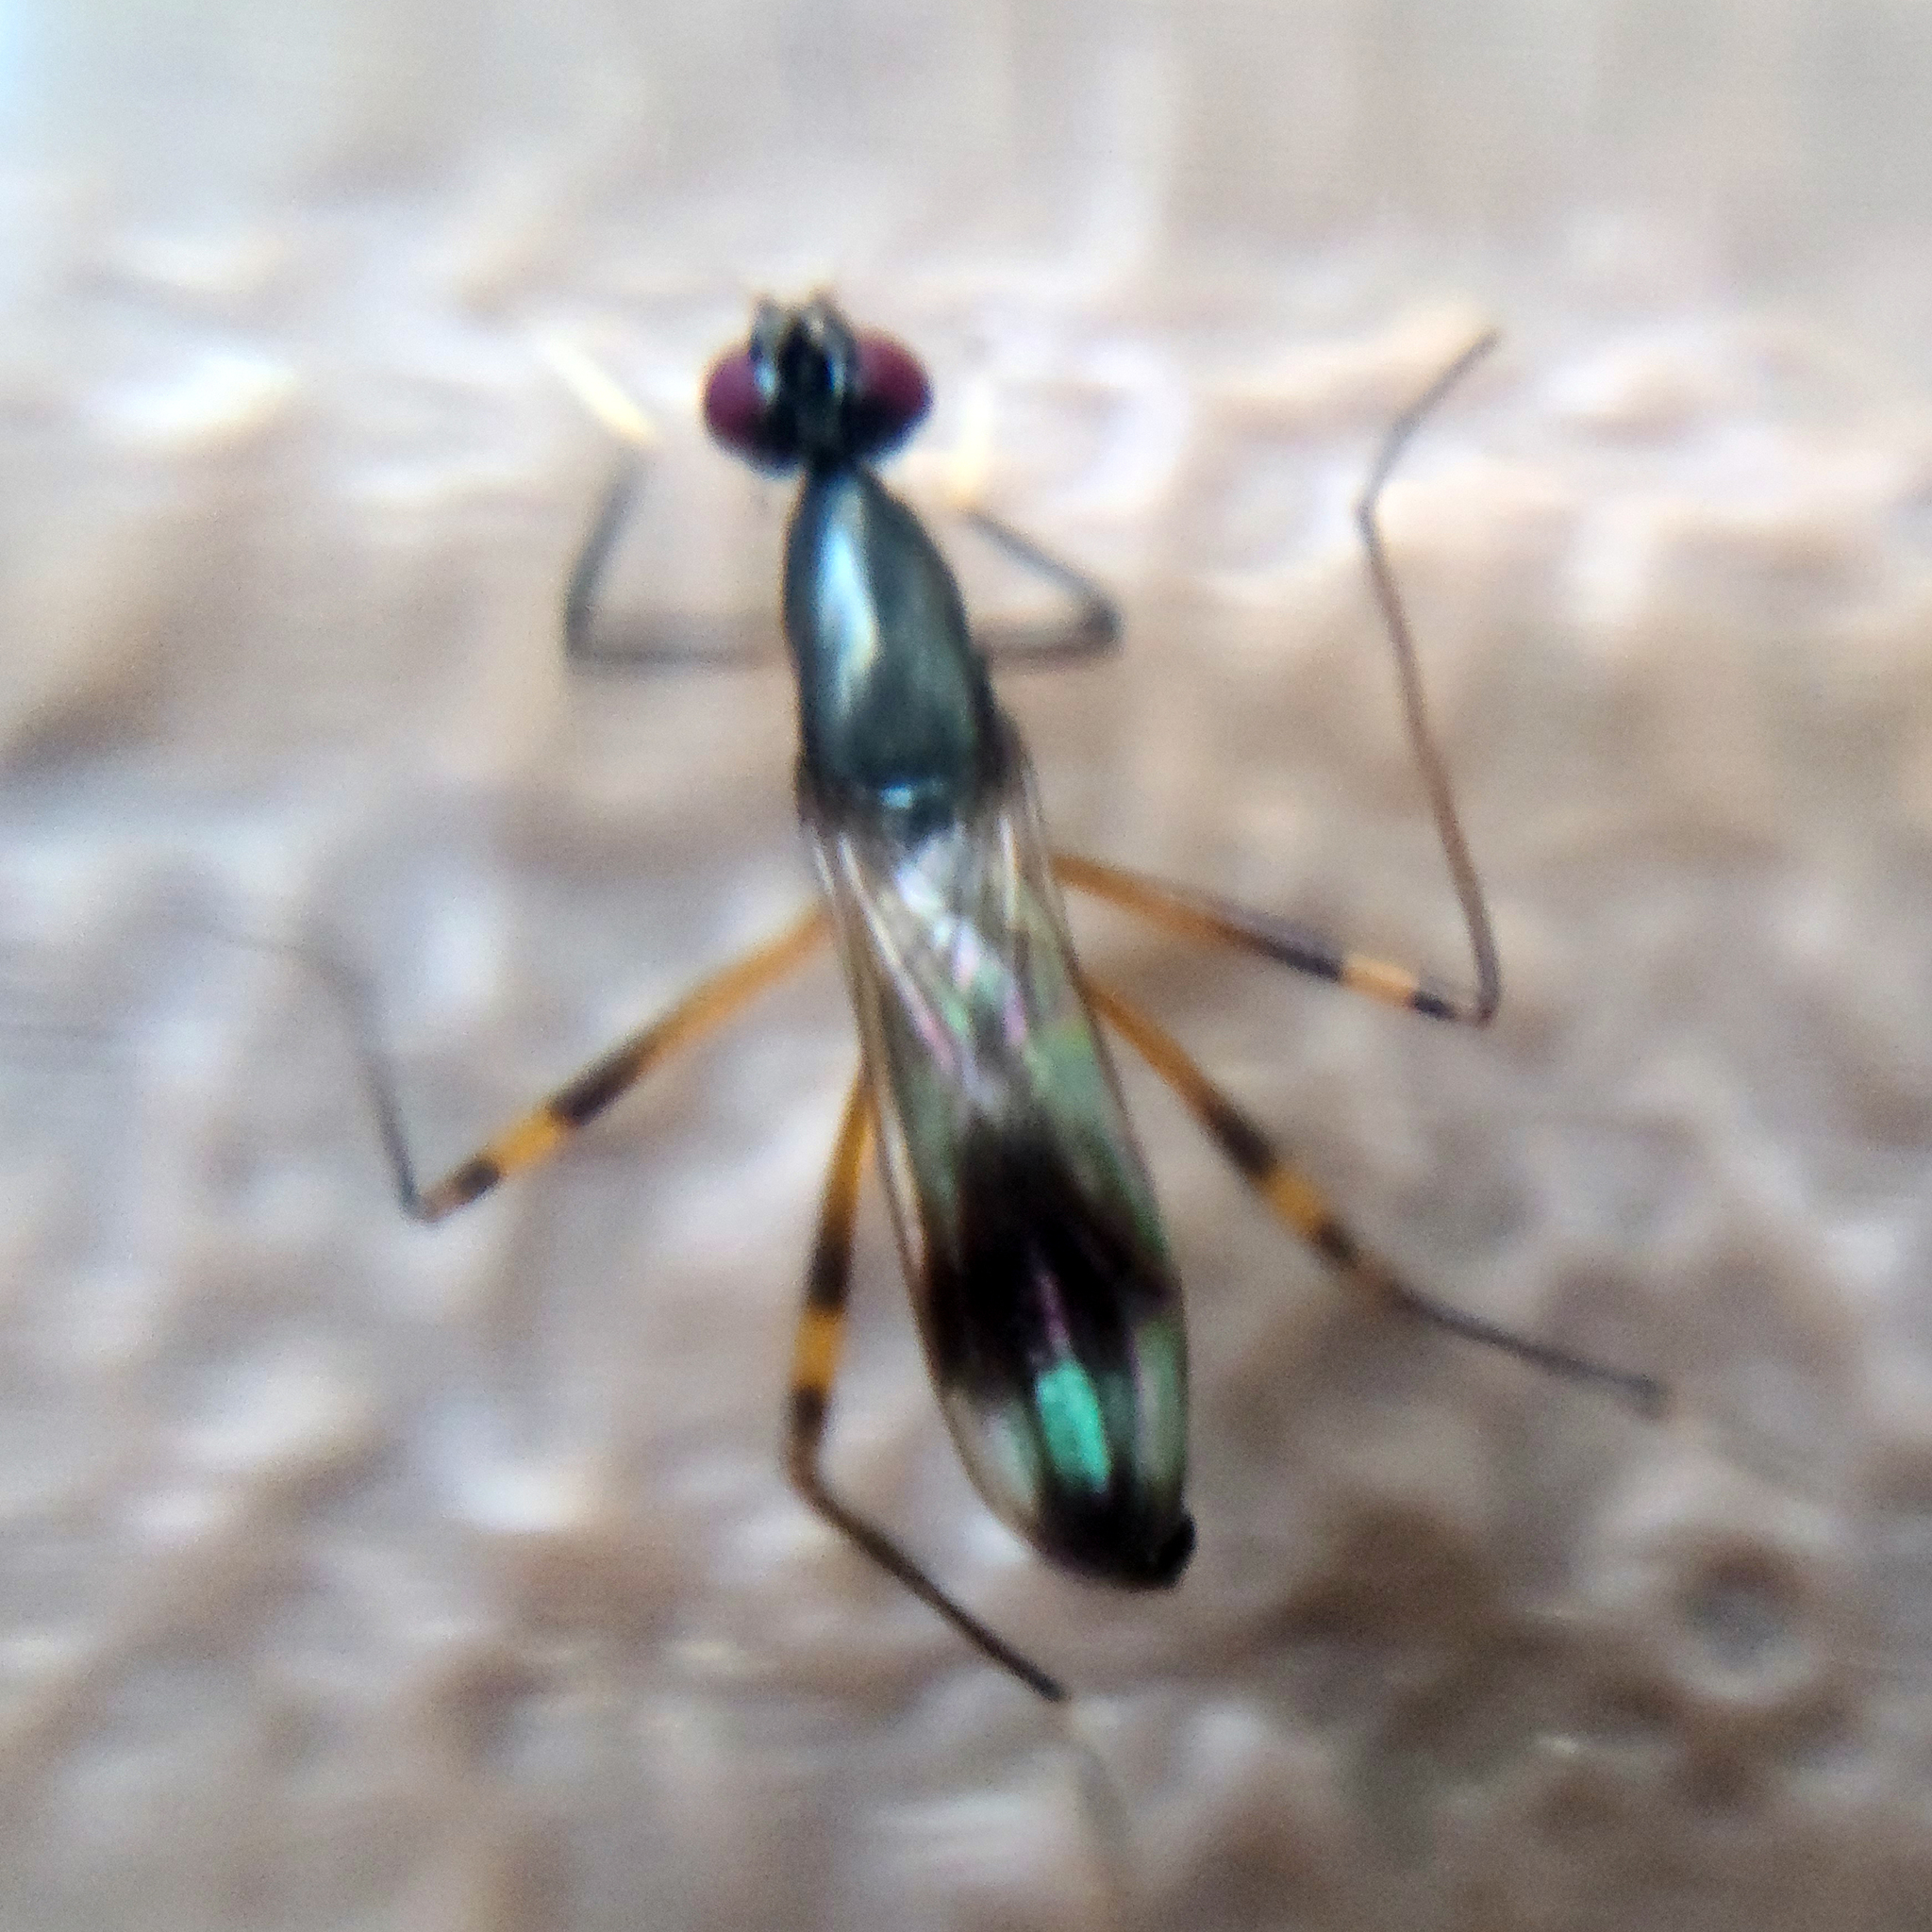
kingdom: Animalia
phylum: Arthropoda
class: Insecta
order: Diptera
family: Micropezidae
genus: Rainieria
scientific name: Rainieria antennaepes
